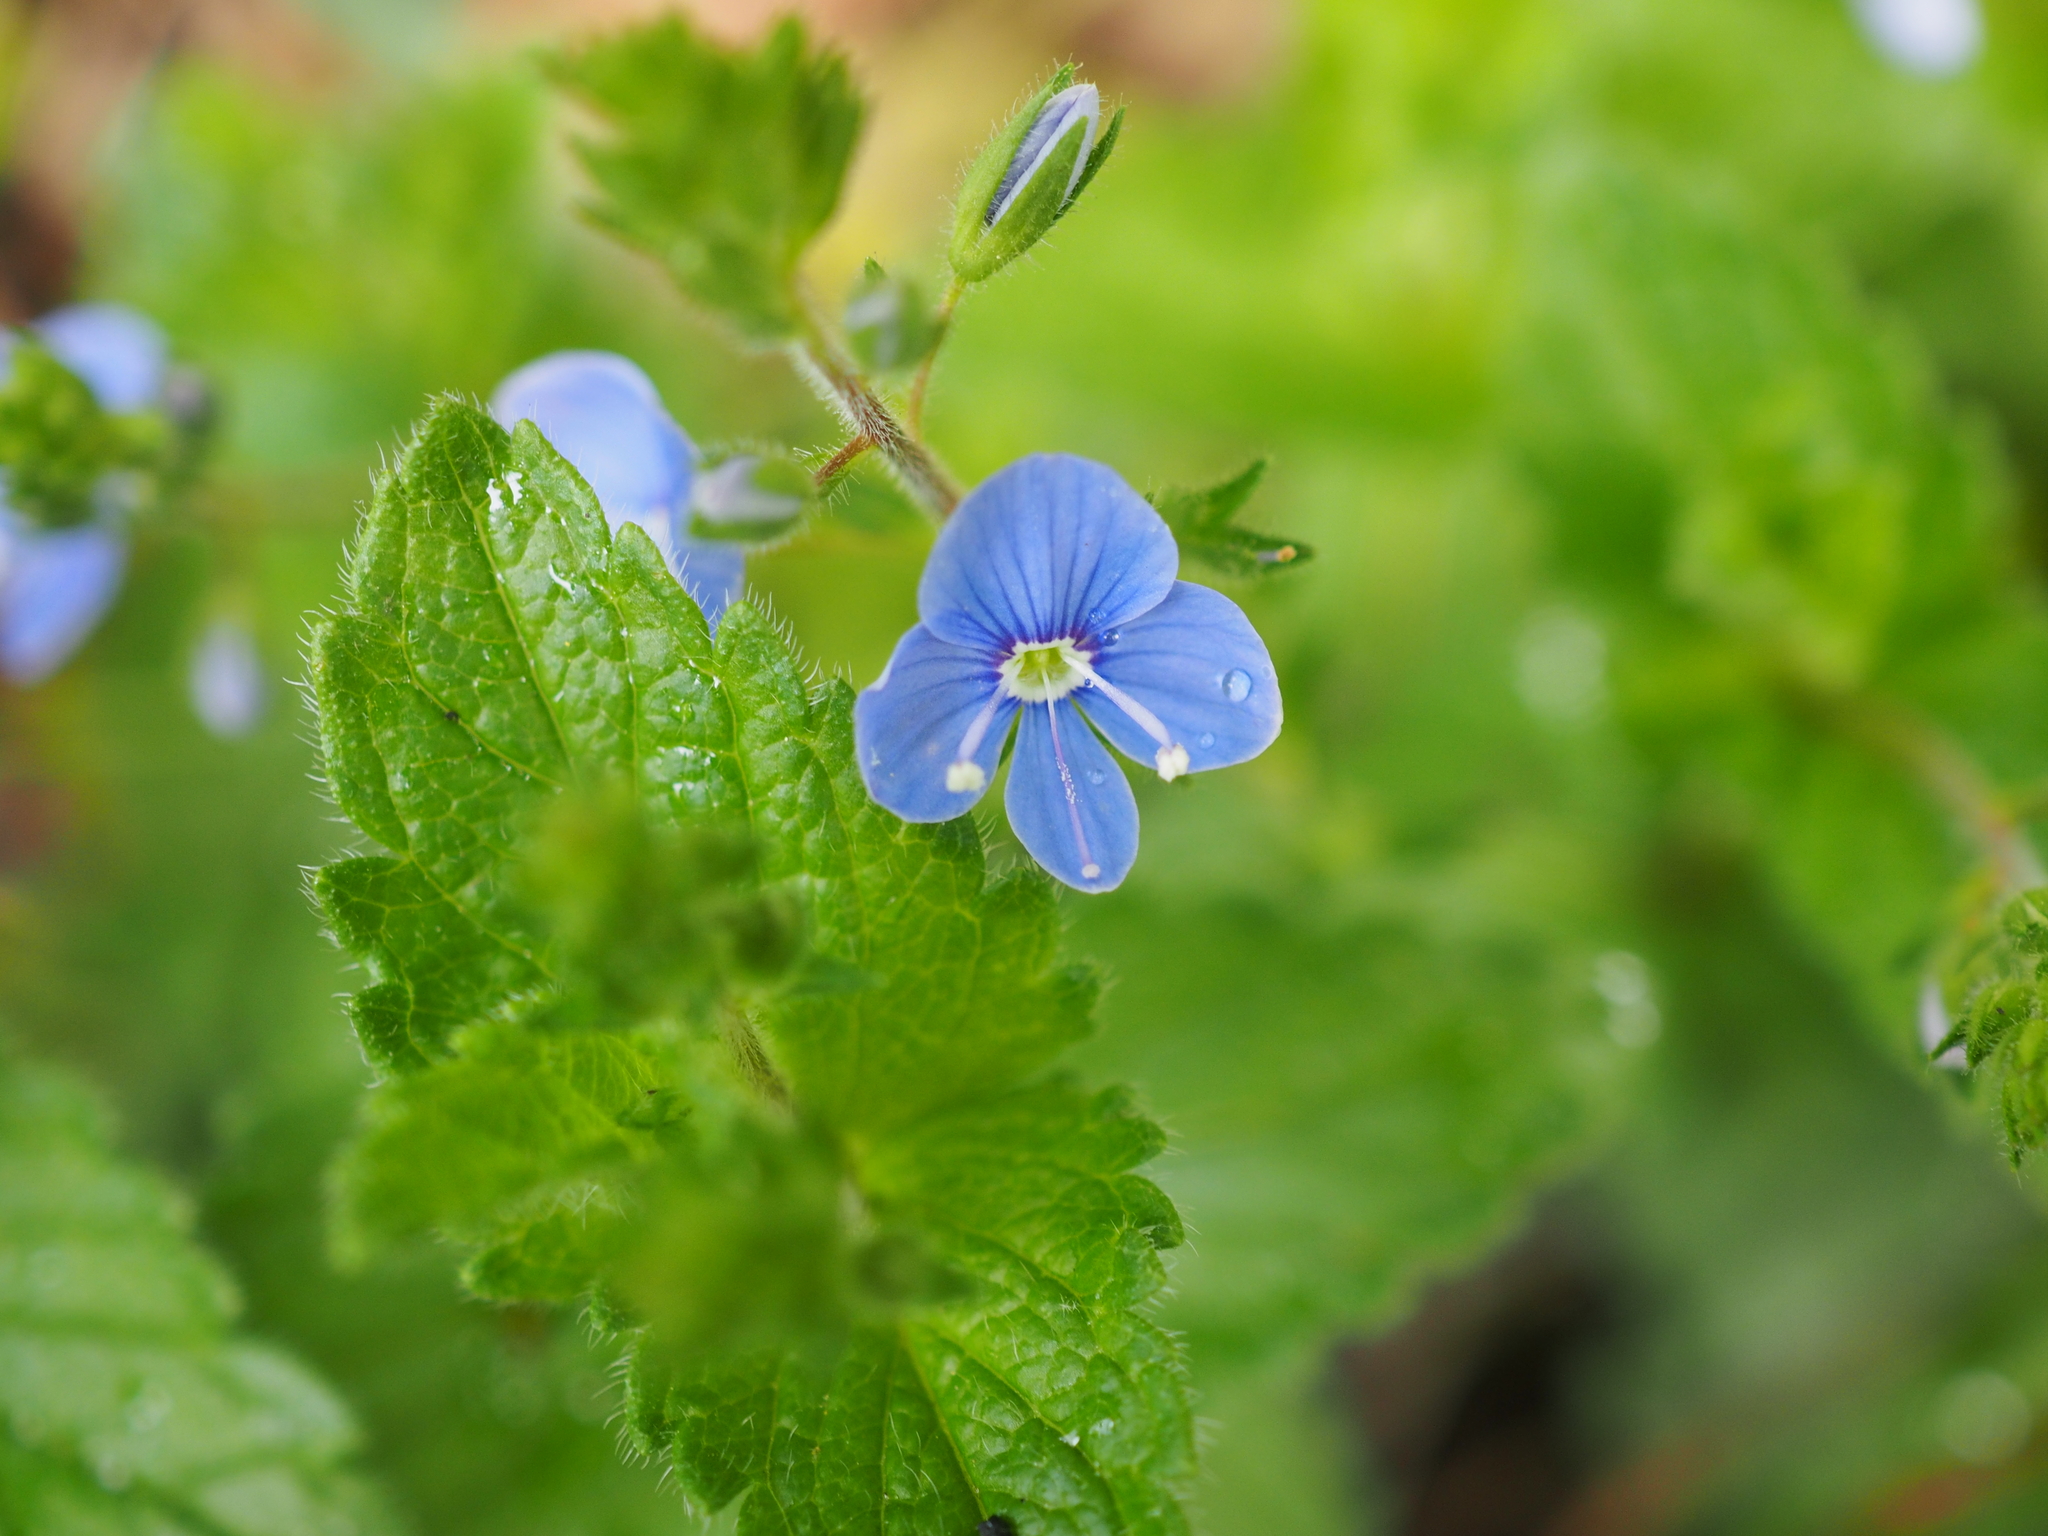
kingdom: Plantae
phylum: Tracheophyta
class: Magnoliopsida
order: Lamiales
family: Plantaginaceae
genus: Veronica
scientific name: Veronica chamaedrys
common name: Germander speedwell
